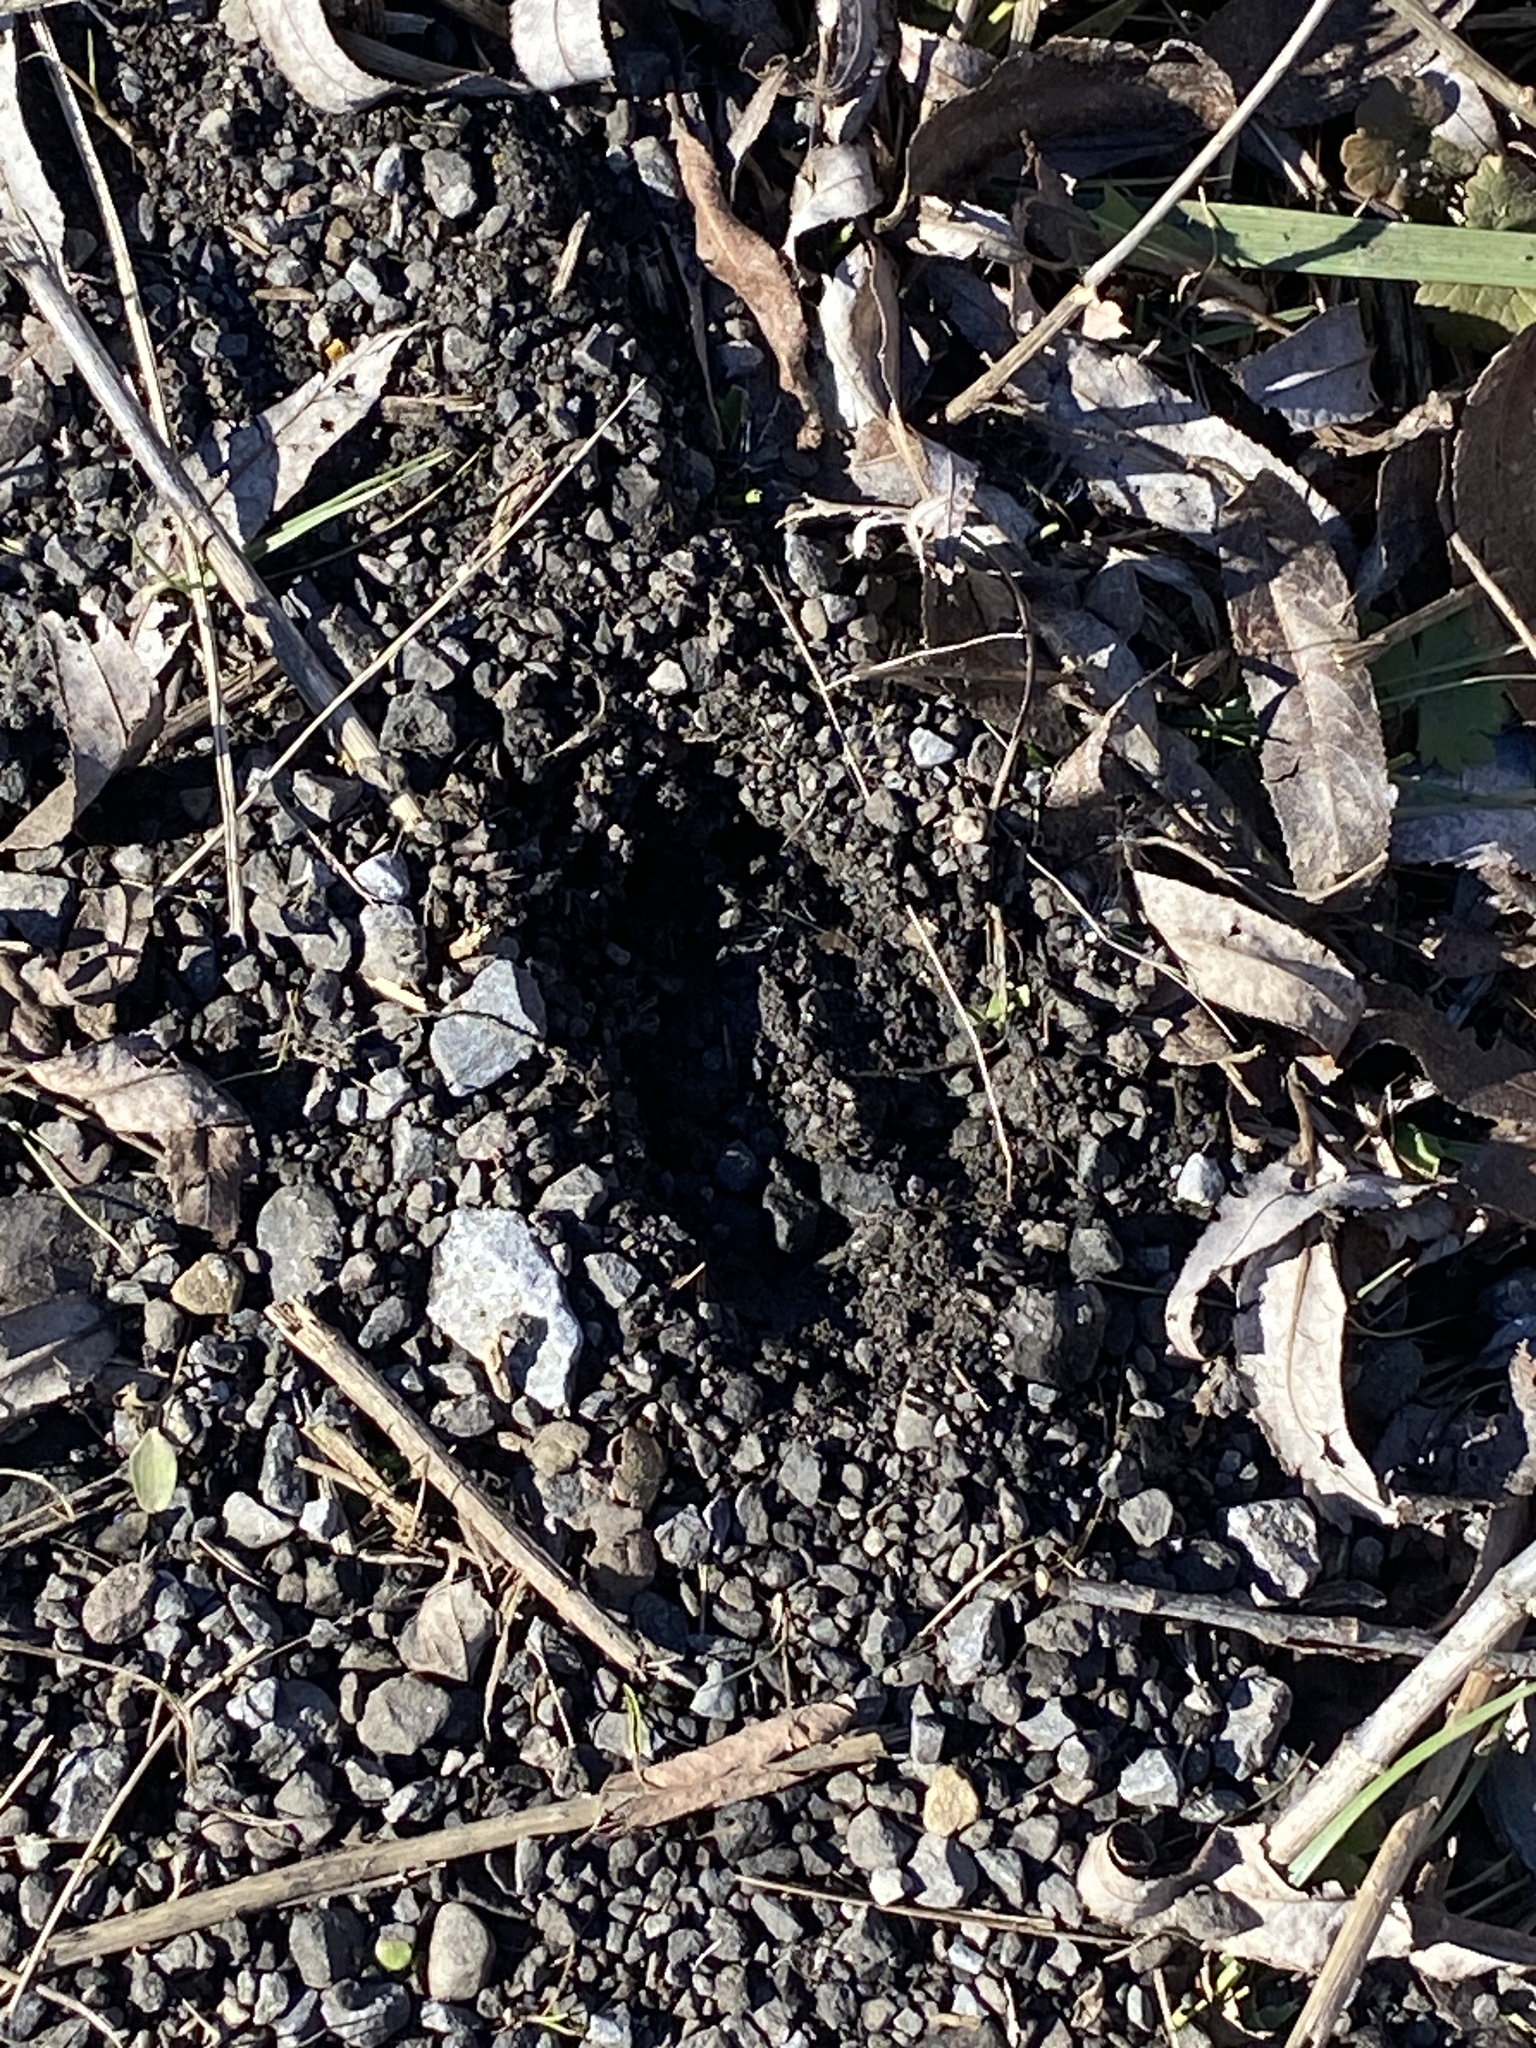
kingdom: Animalia
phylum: Chordata
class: Mammalia
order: Artiodactyla
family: Cervidae
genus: Odocoileus
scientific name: Odocoileus virginianus
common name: White-tailed deer
